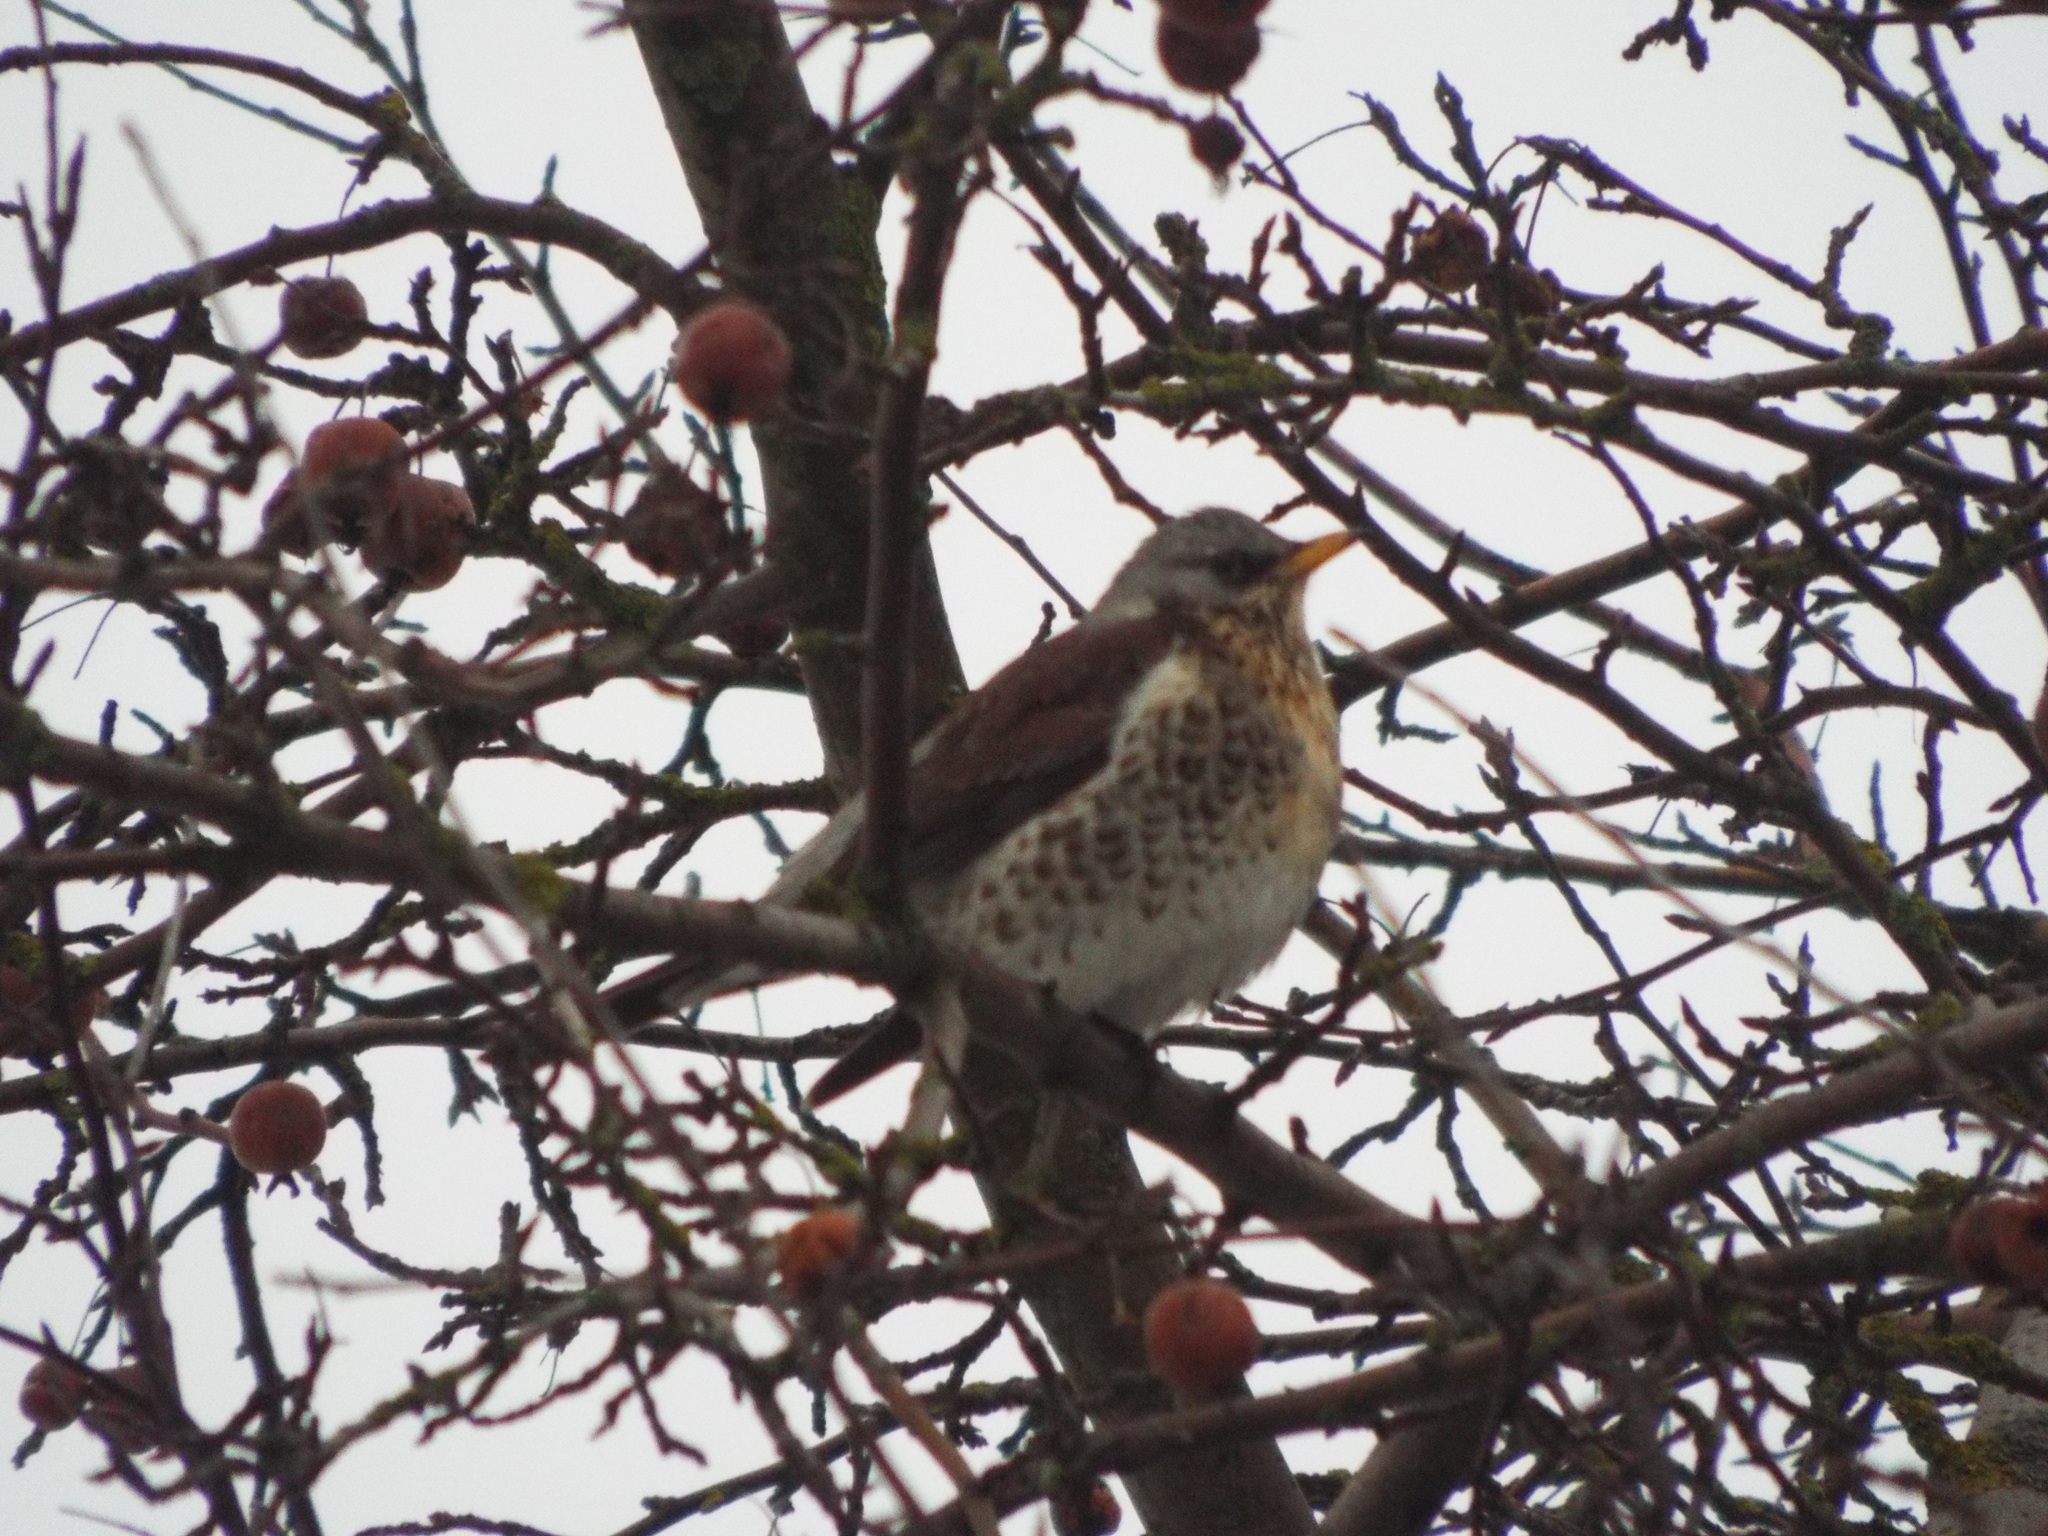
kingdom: Animalia
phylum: Chordata
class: Aves
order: Passeriformes
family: Turdidae
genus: Turdus
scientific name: Turdus pilaris
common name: Fieldfare
